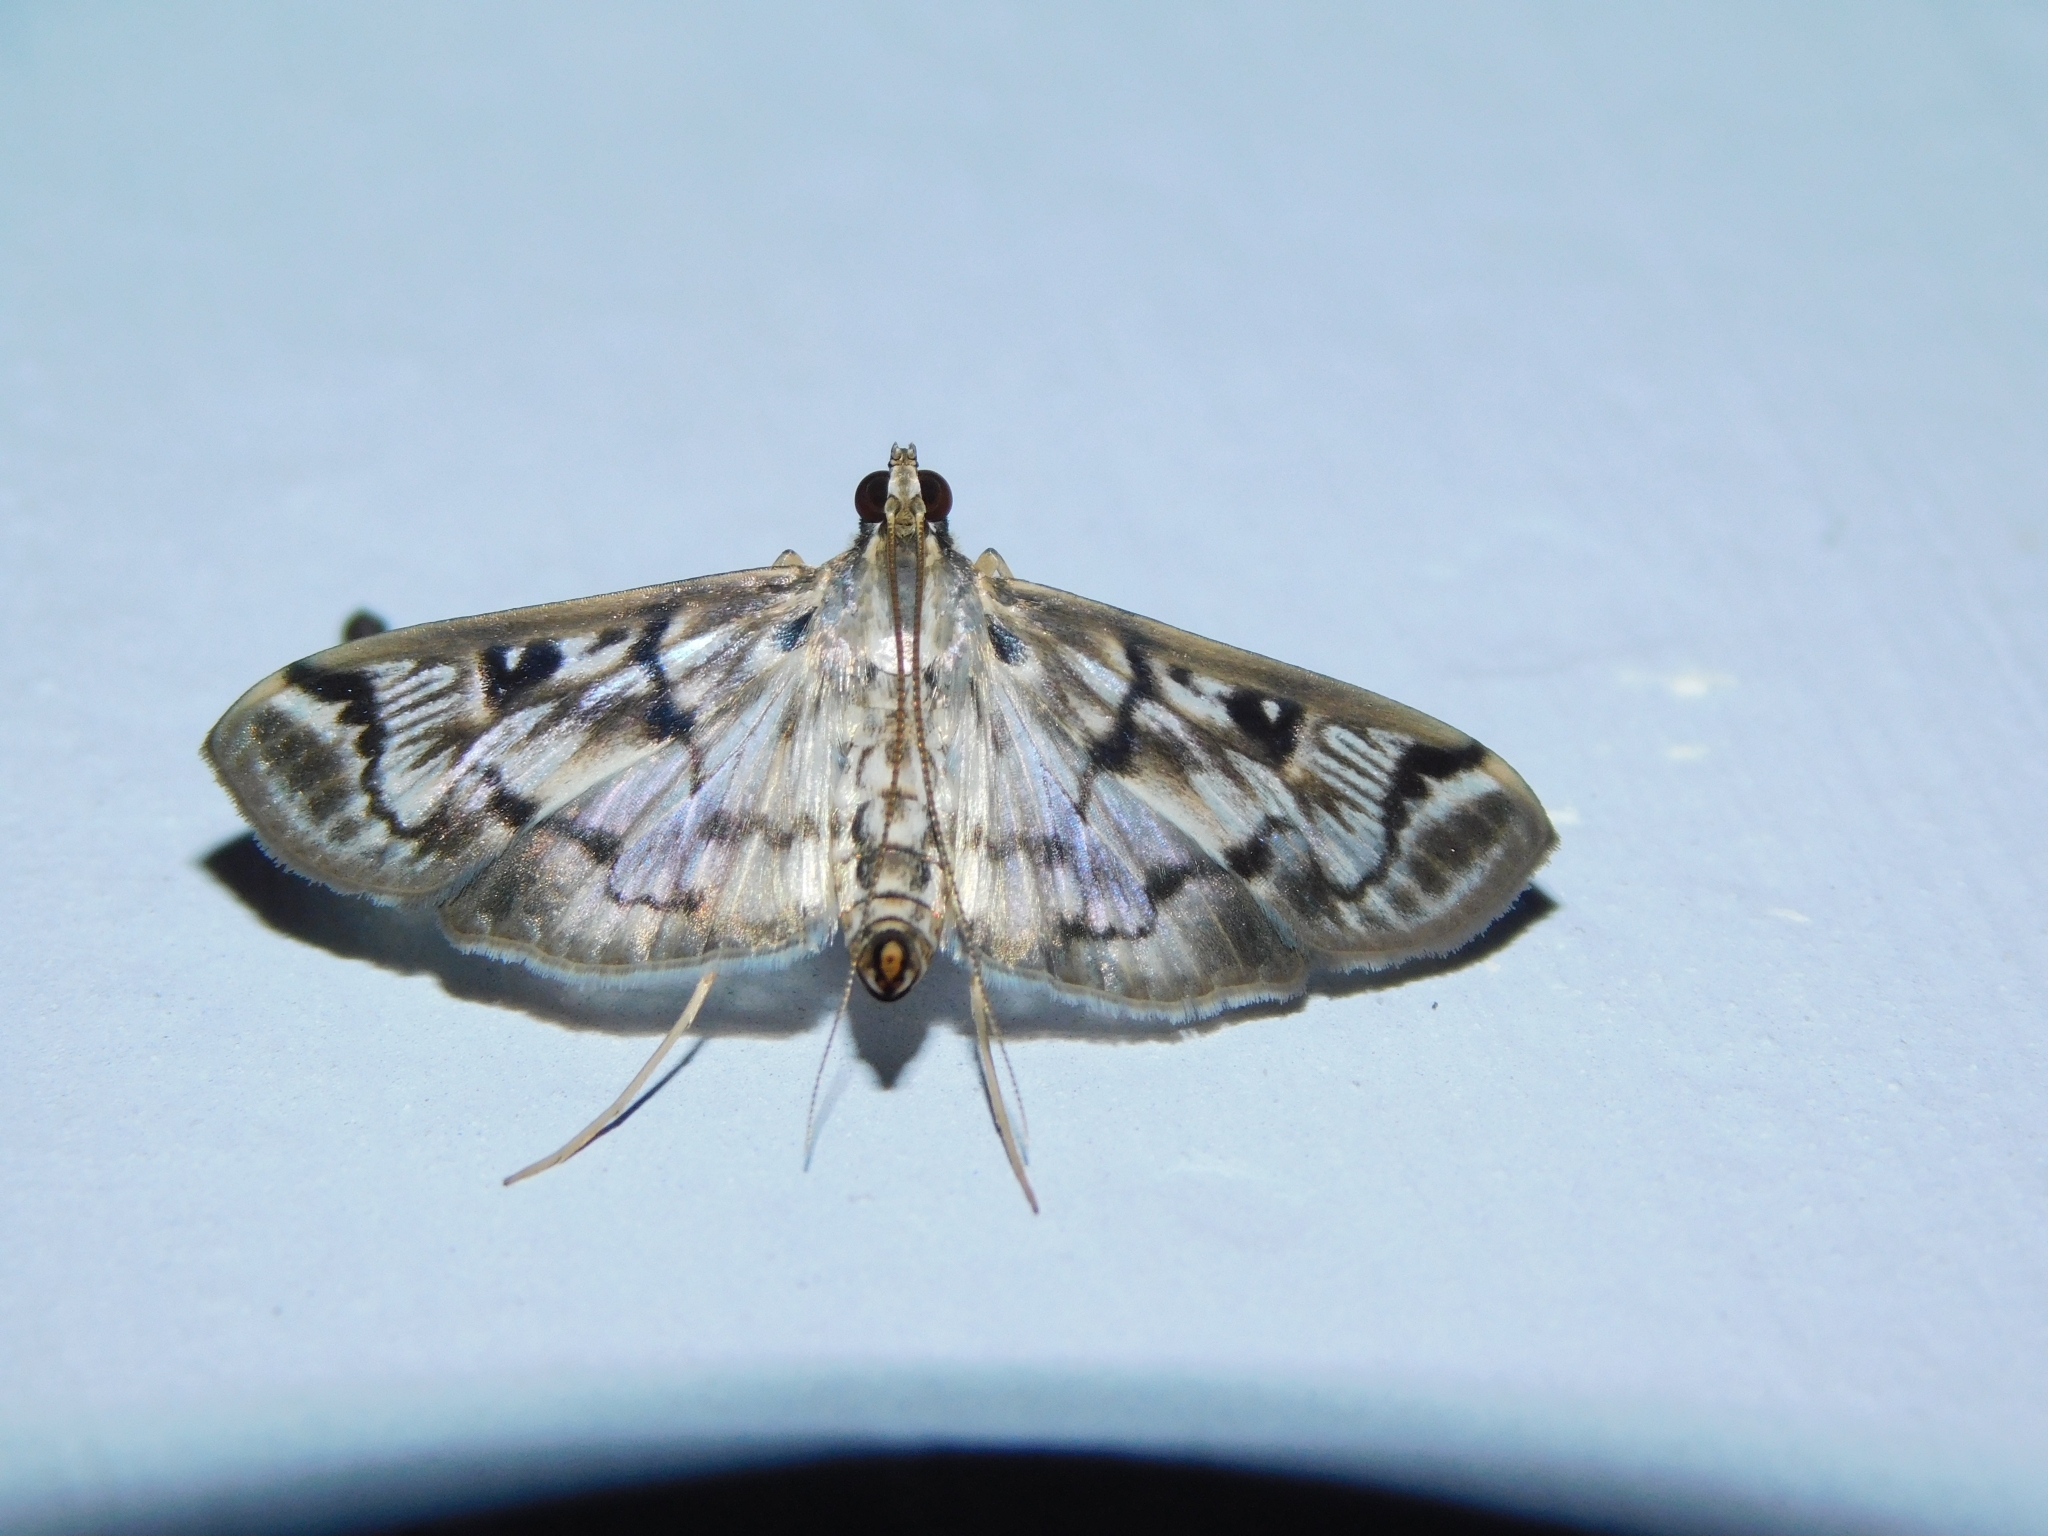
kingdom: Animalia
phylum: Arthropoda
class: Insecta
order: Lepidoptera
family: Crambidae
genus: Rhimphalea
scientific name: Rhimphalea ochalis
